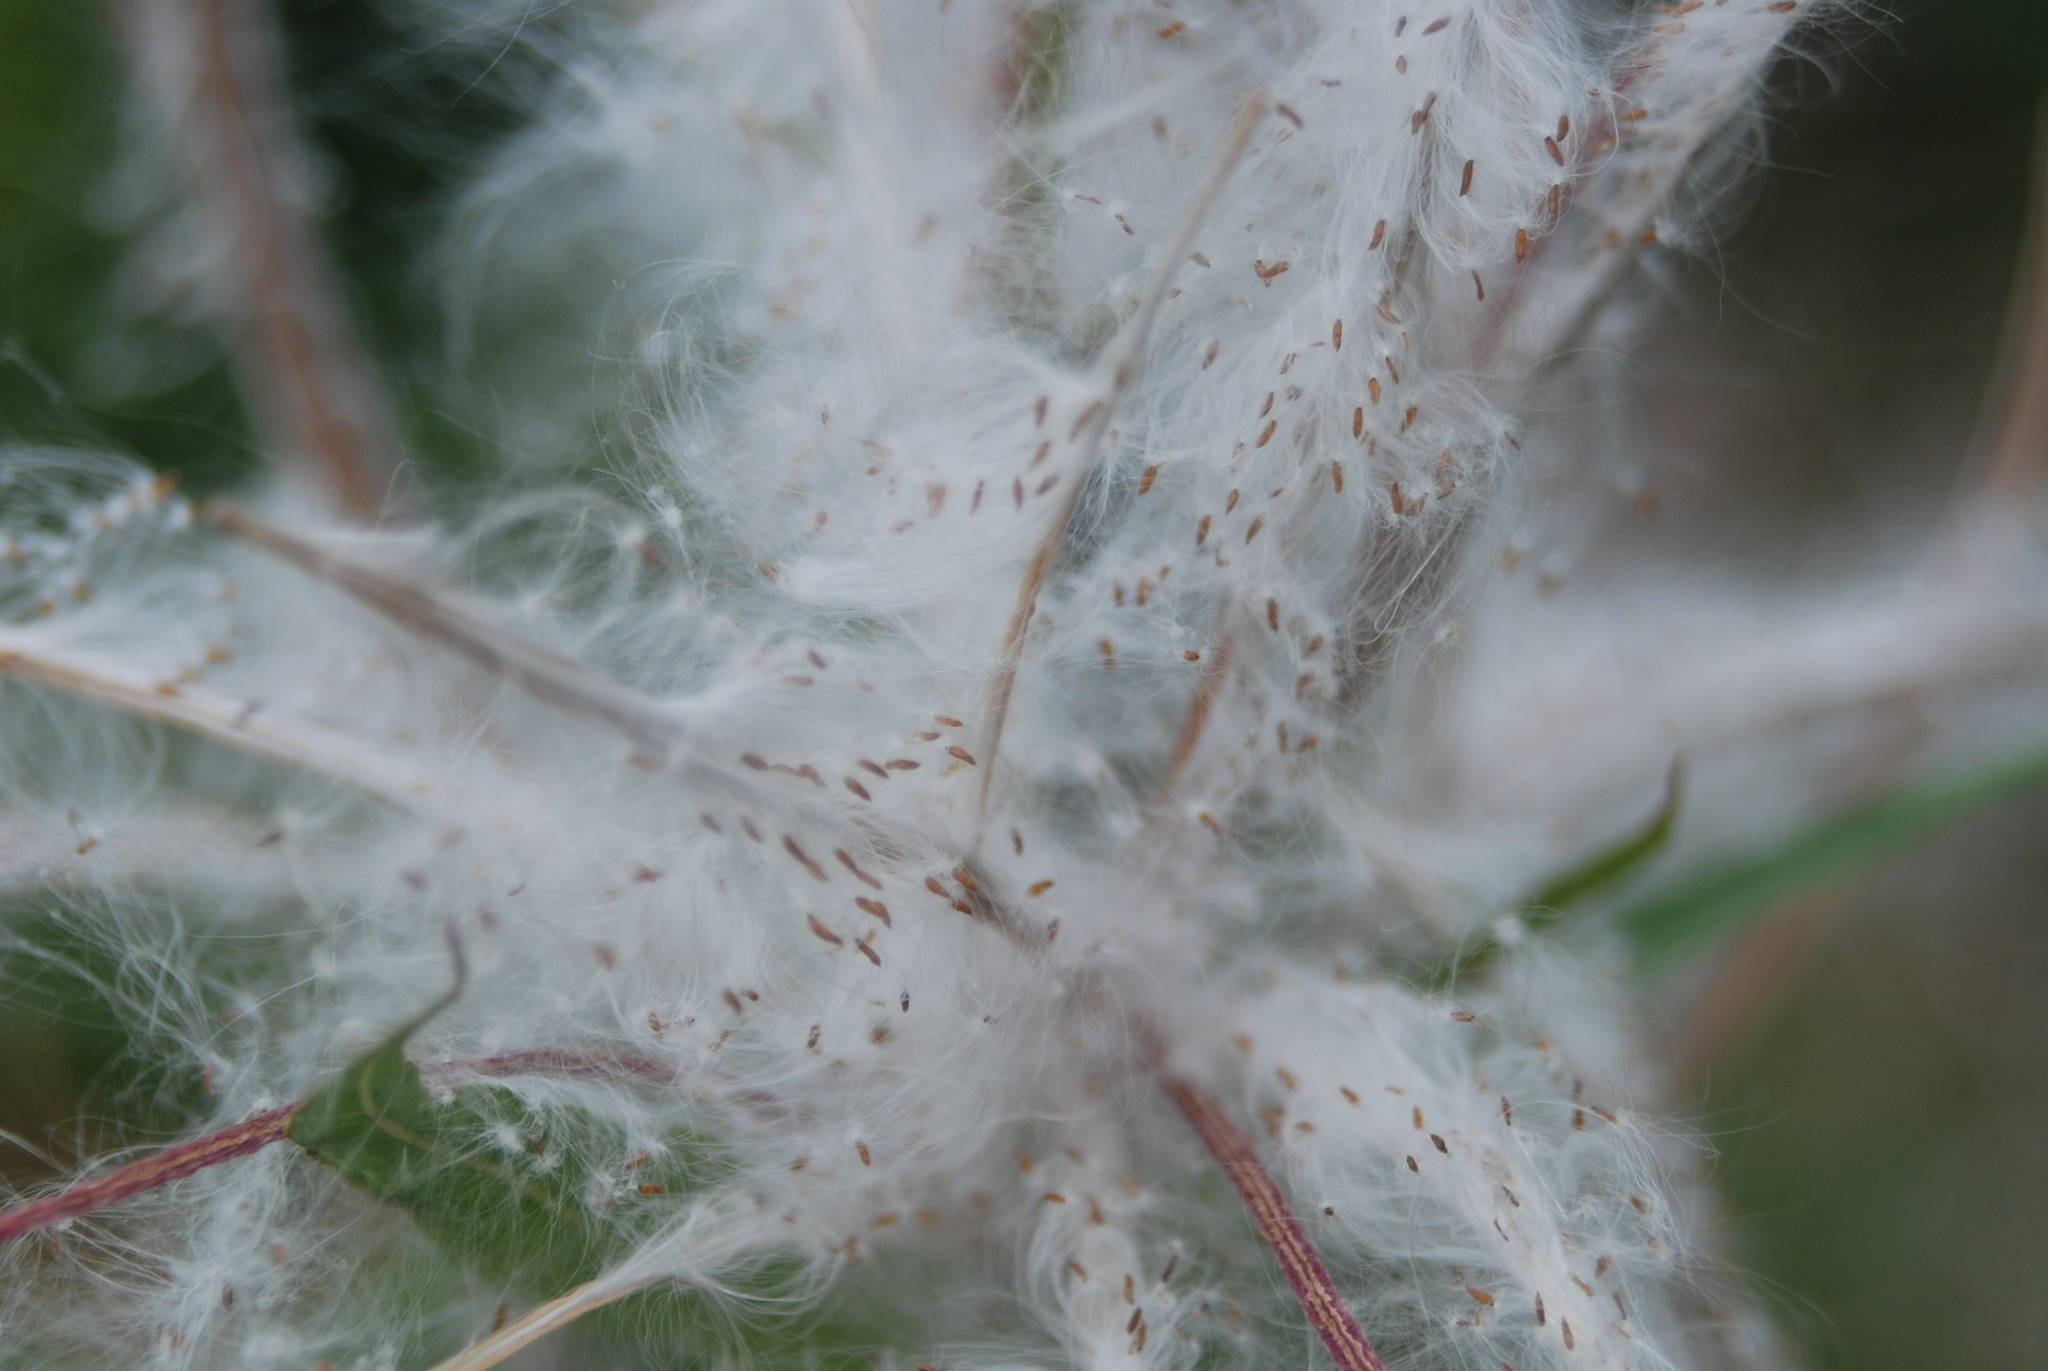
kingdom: Plantae
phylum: Tracheophyta
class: Magnoliopsida
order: Myrtales
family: Onagraceae
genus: Chamaenerion
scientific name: Chamaenerion angustifolium
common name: Fireweed
